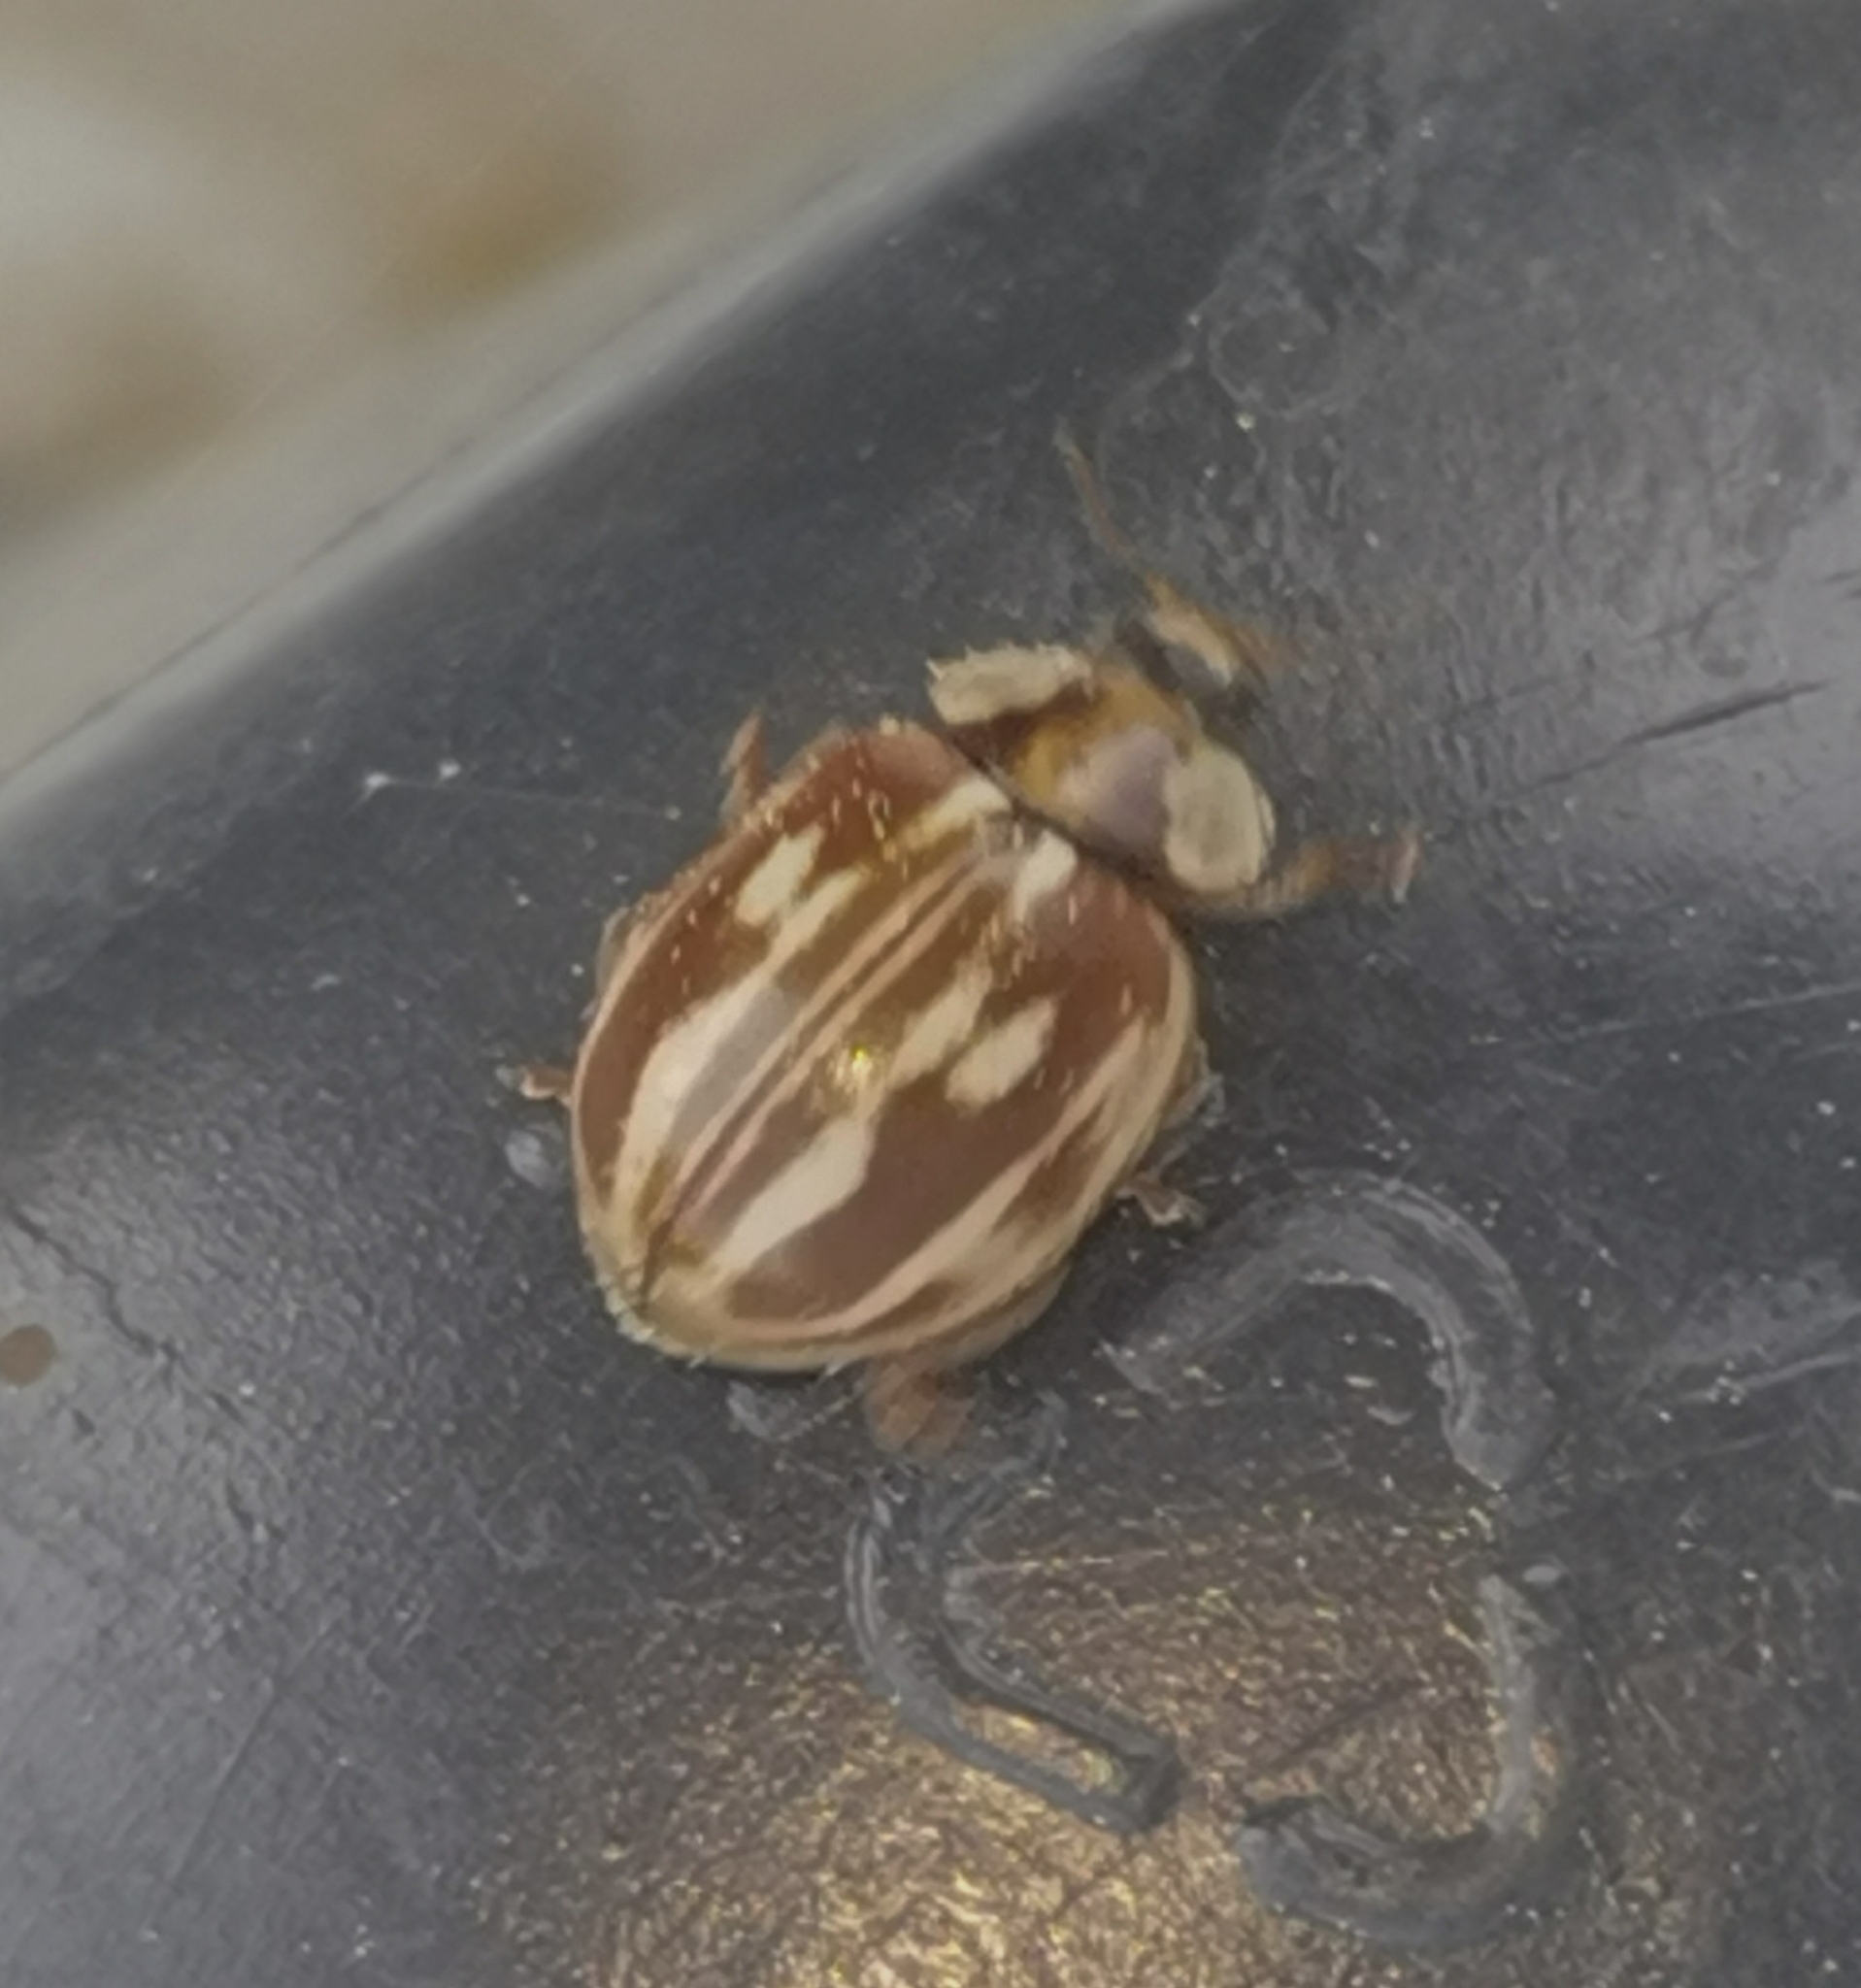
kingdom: Animalia
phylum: Arthropoda
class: Insecta
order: Coleoptera
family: Coccinellidae
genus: Myzia
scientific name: Myzia oblongoguttata
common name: Striped ladybird
